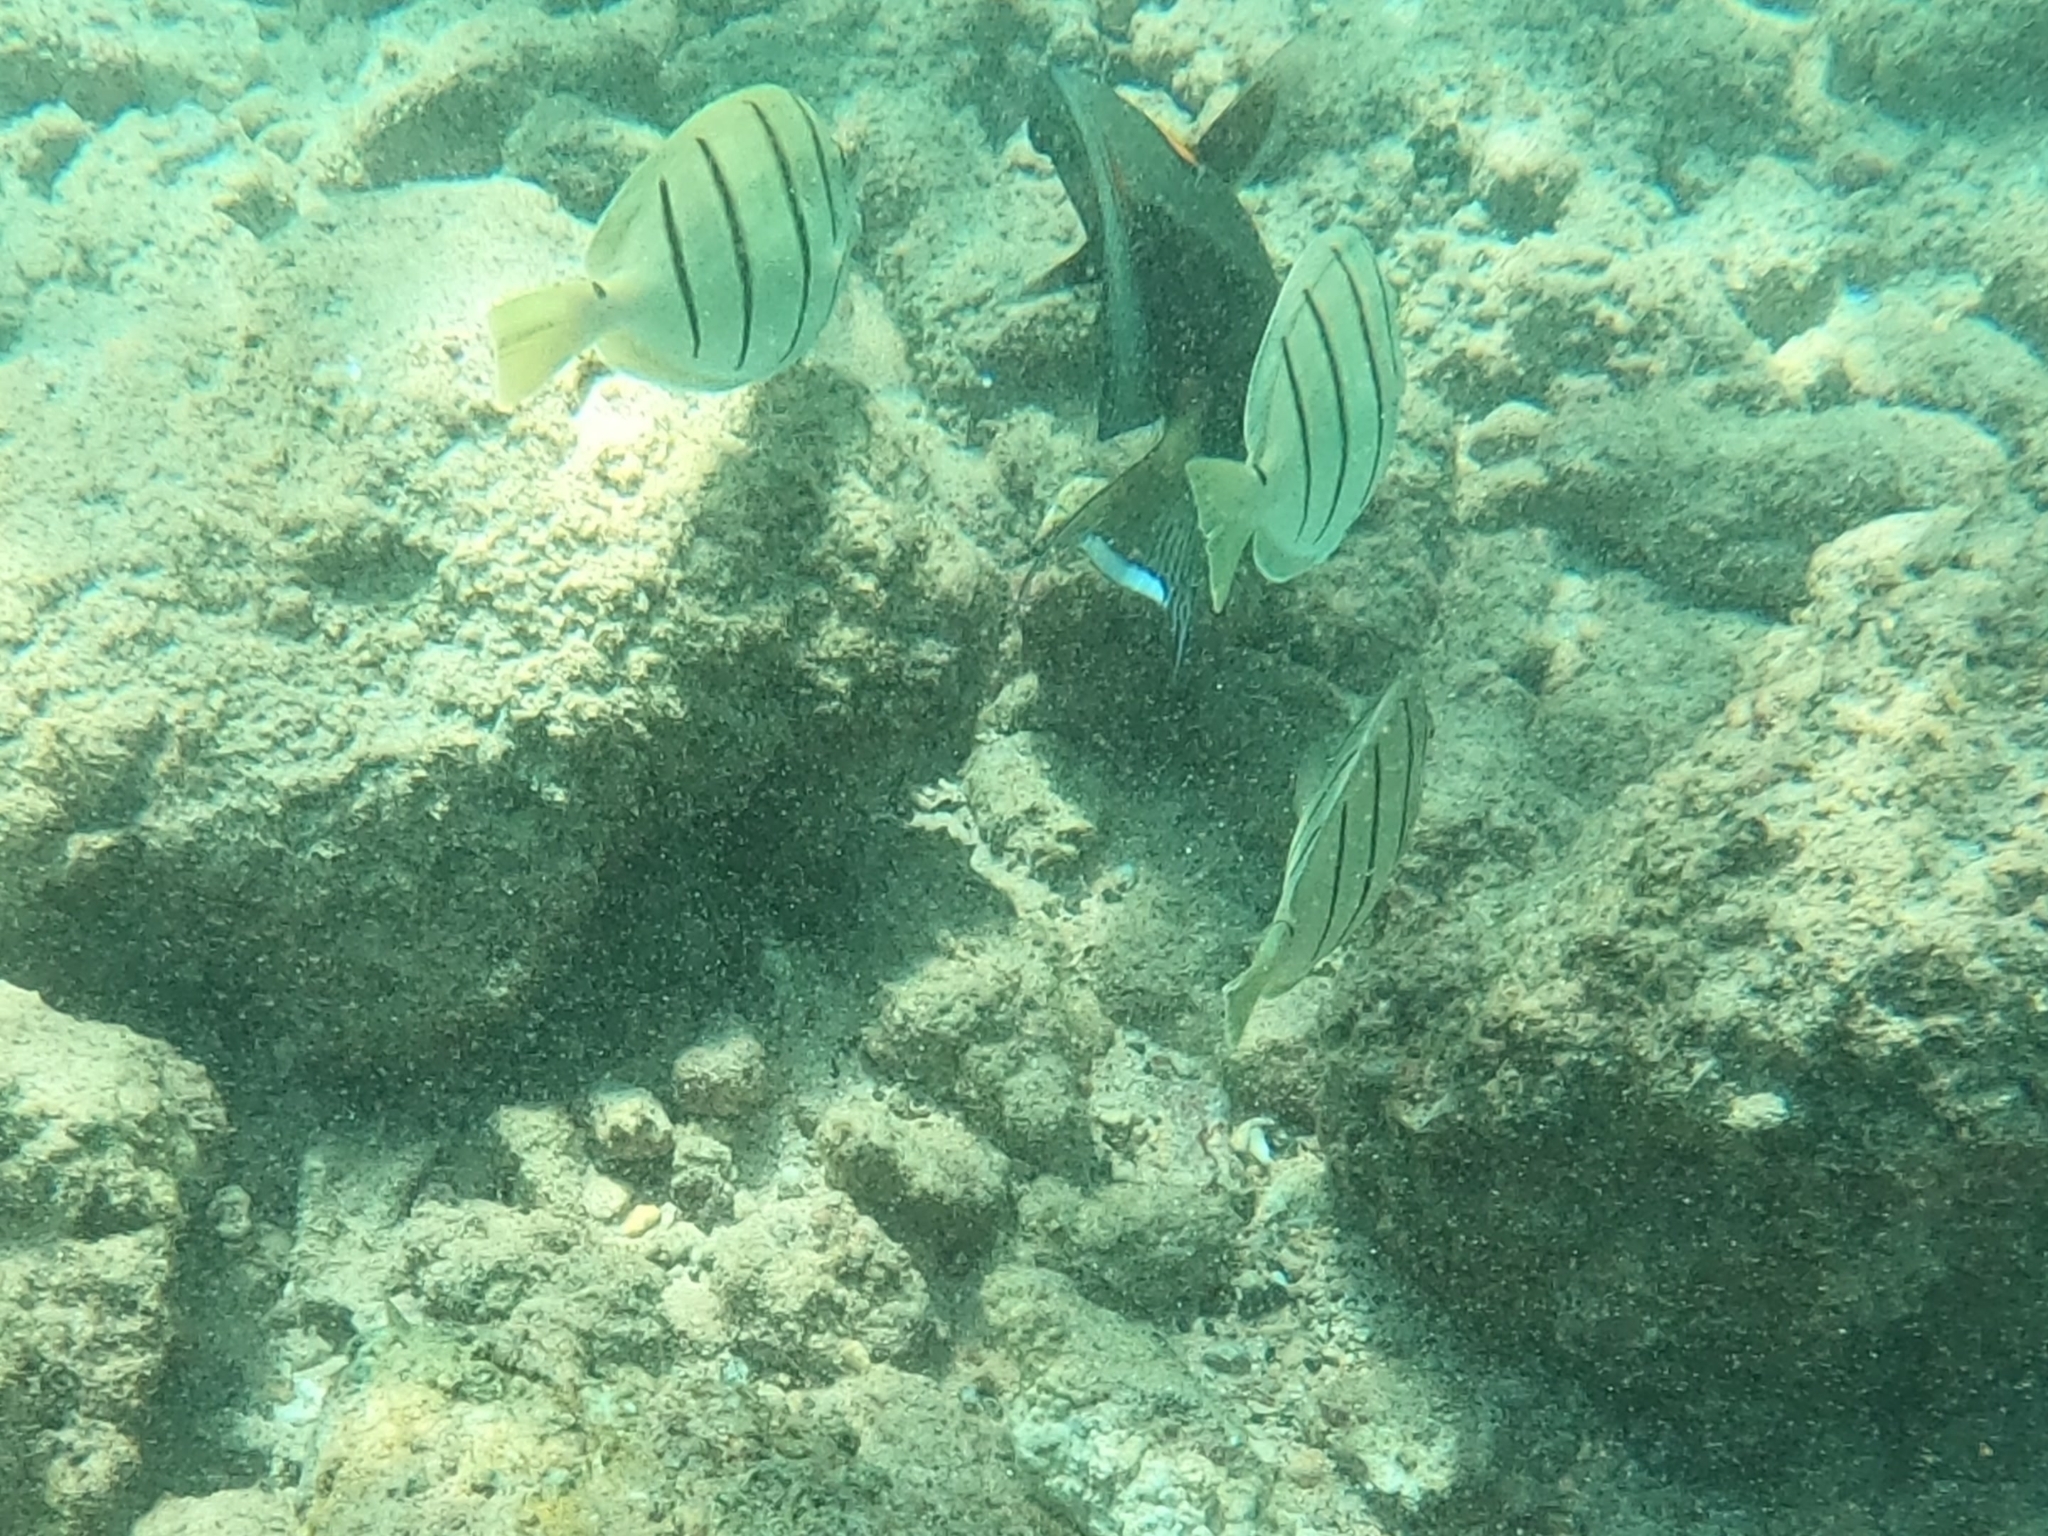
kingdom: Animalia
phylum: Chordata
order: Perciformes
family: Acanthuridae
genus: Acanthurus
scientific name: Acanthurus triostegus
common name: Convict surgeonfish
